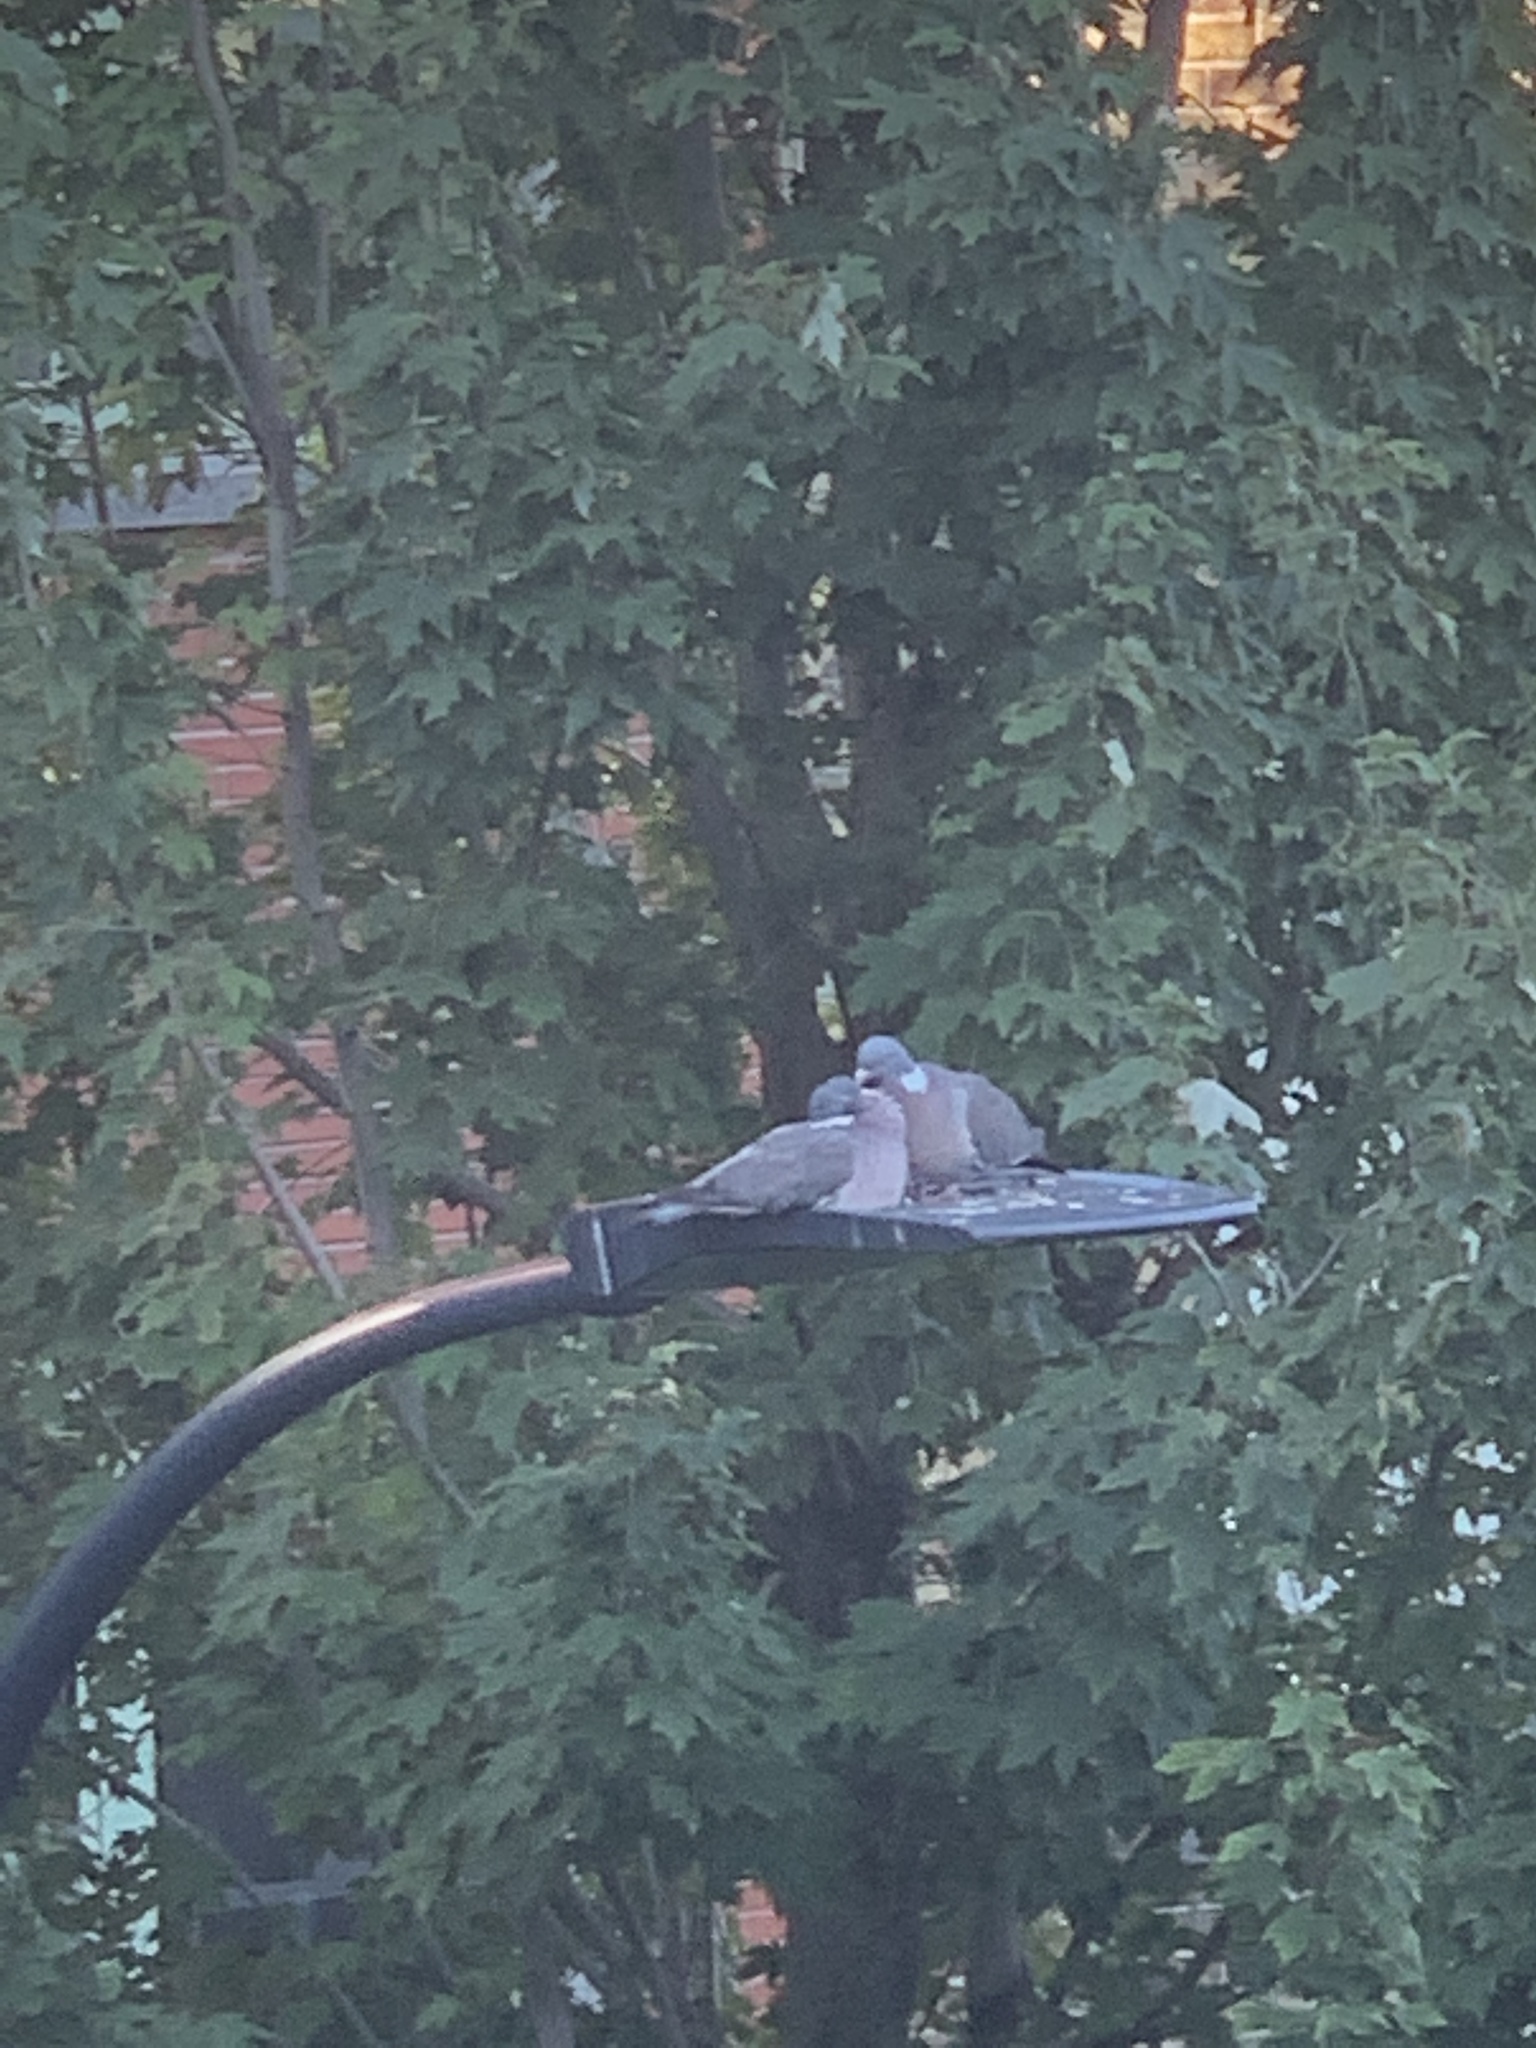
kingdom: Animalia
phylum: Chordata
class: Aves
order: Columbiformes
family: Columbidae
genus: Columba
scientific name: Columba palumbus
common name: Common wood pigeon
